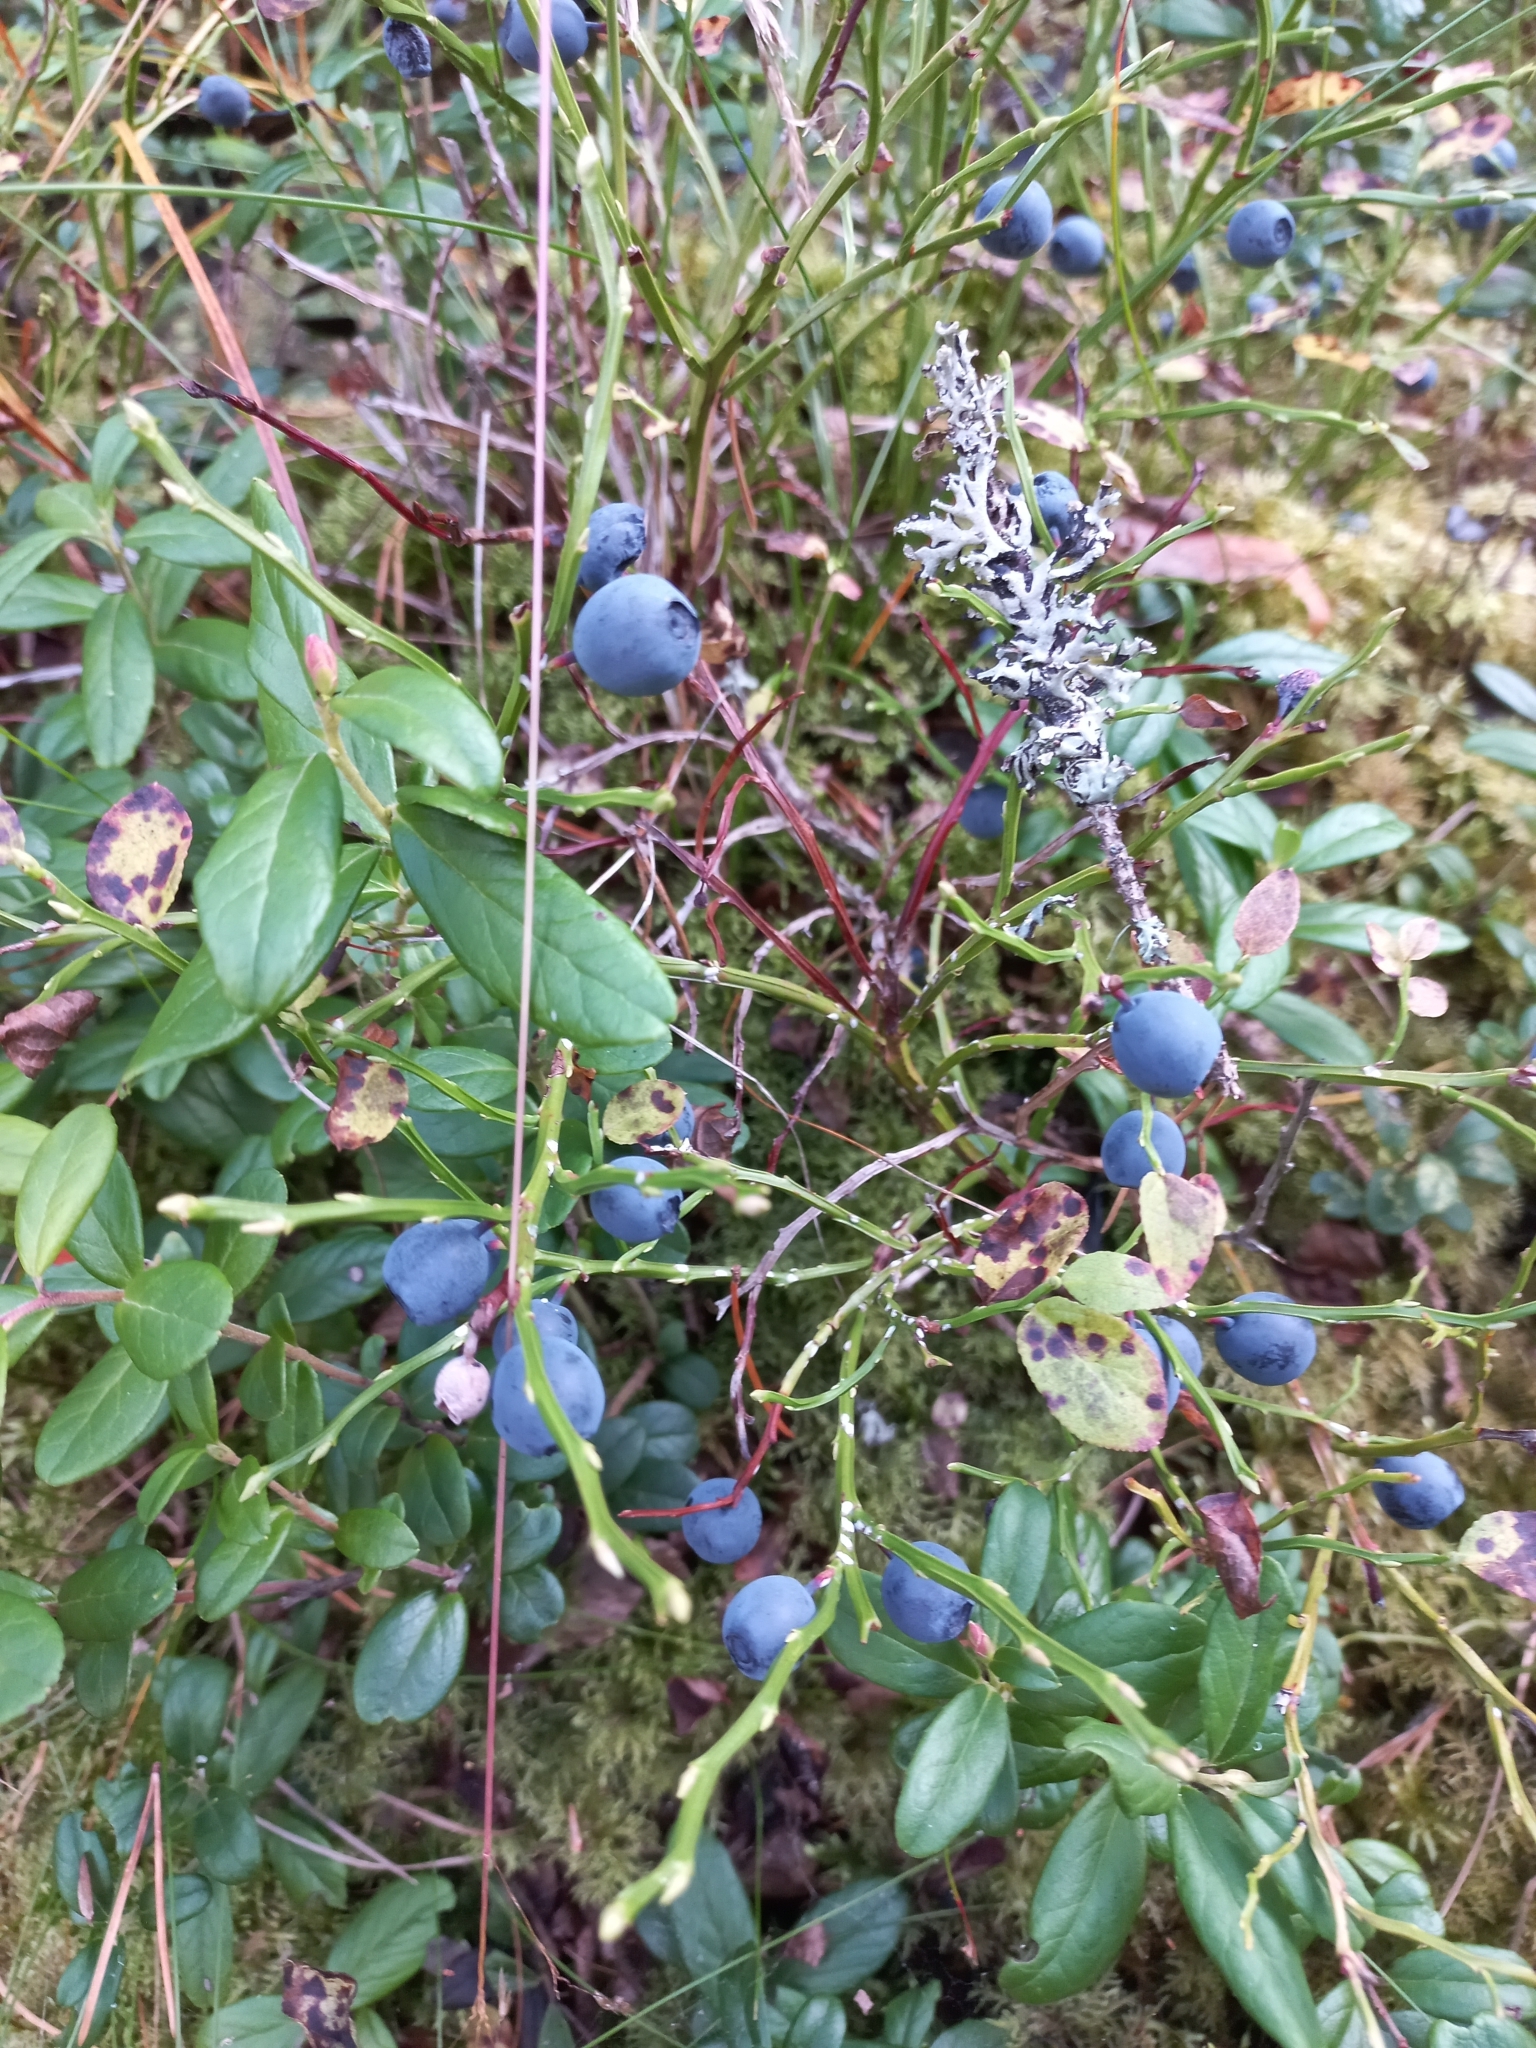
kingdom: Plantae
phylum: Tracheophyta
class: Magnoliopsida
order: Ericales
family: Ericaceae
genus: Vaccinium
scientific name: Vaccinium myrtillus
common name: Bilberry
